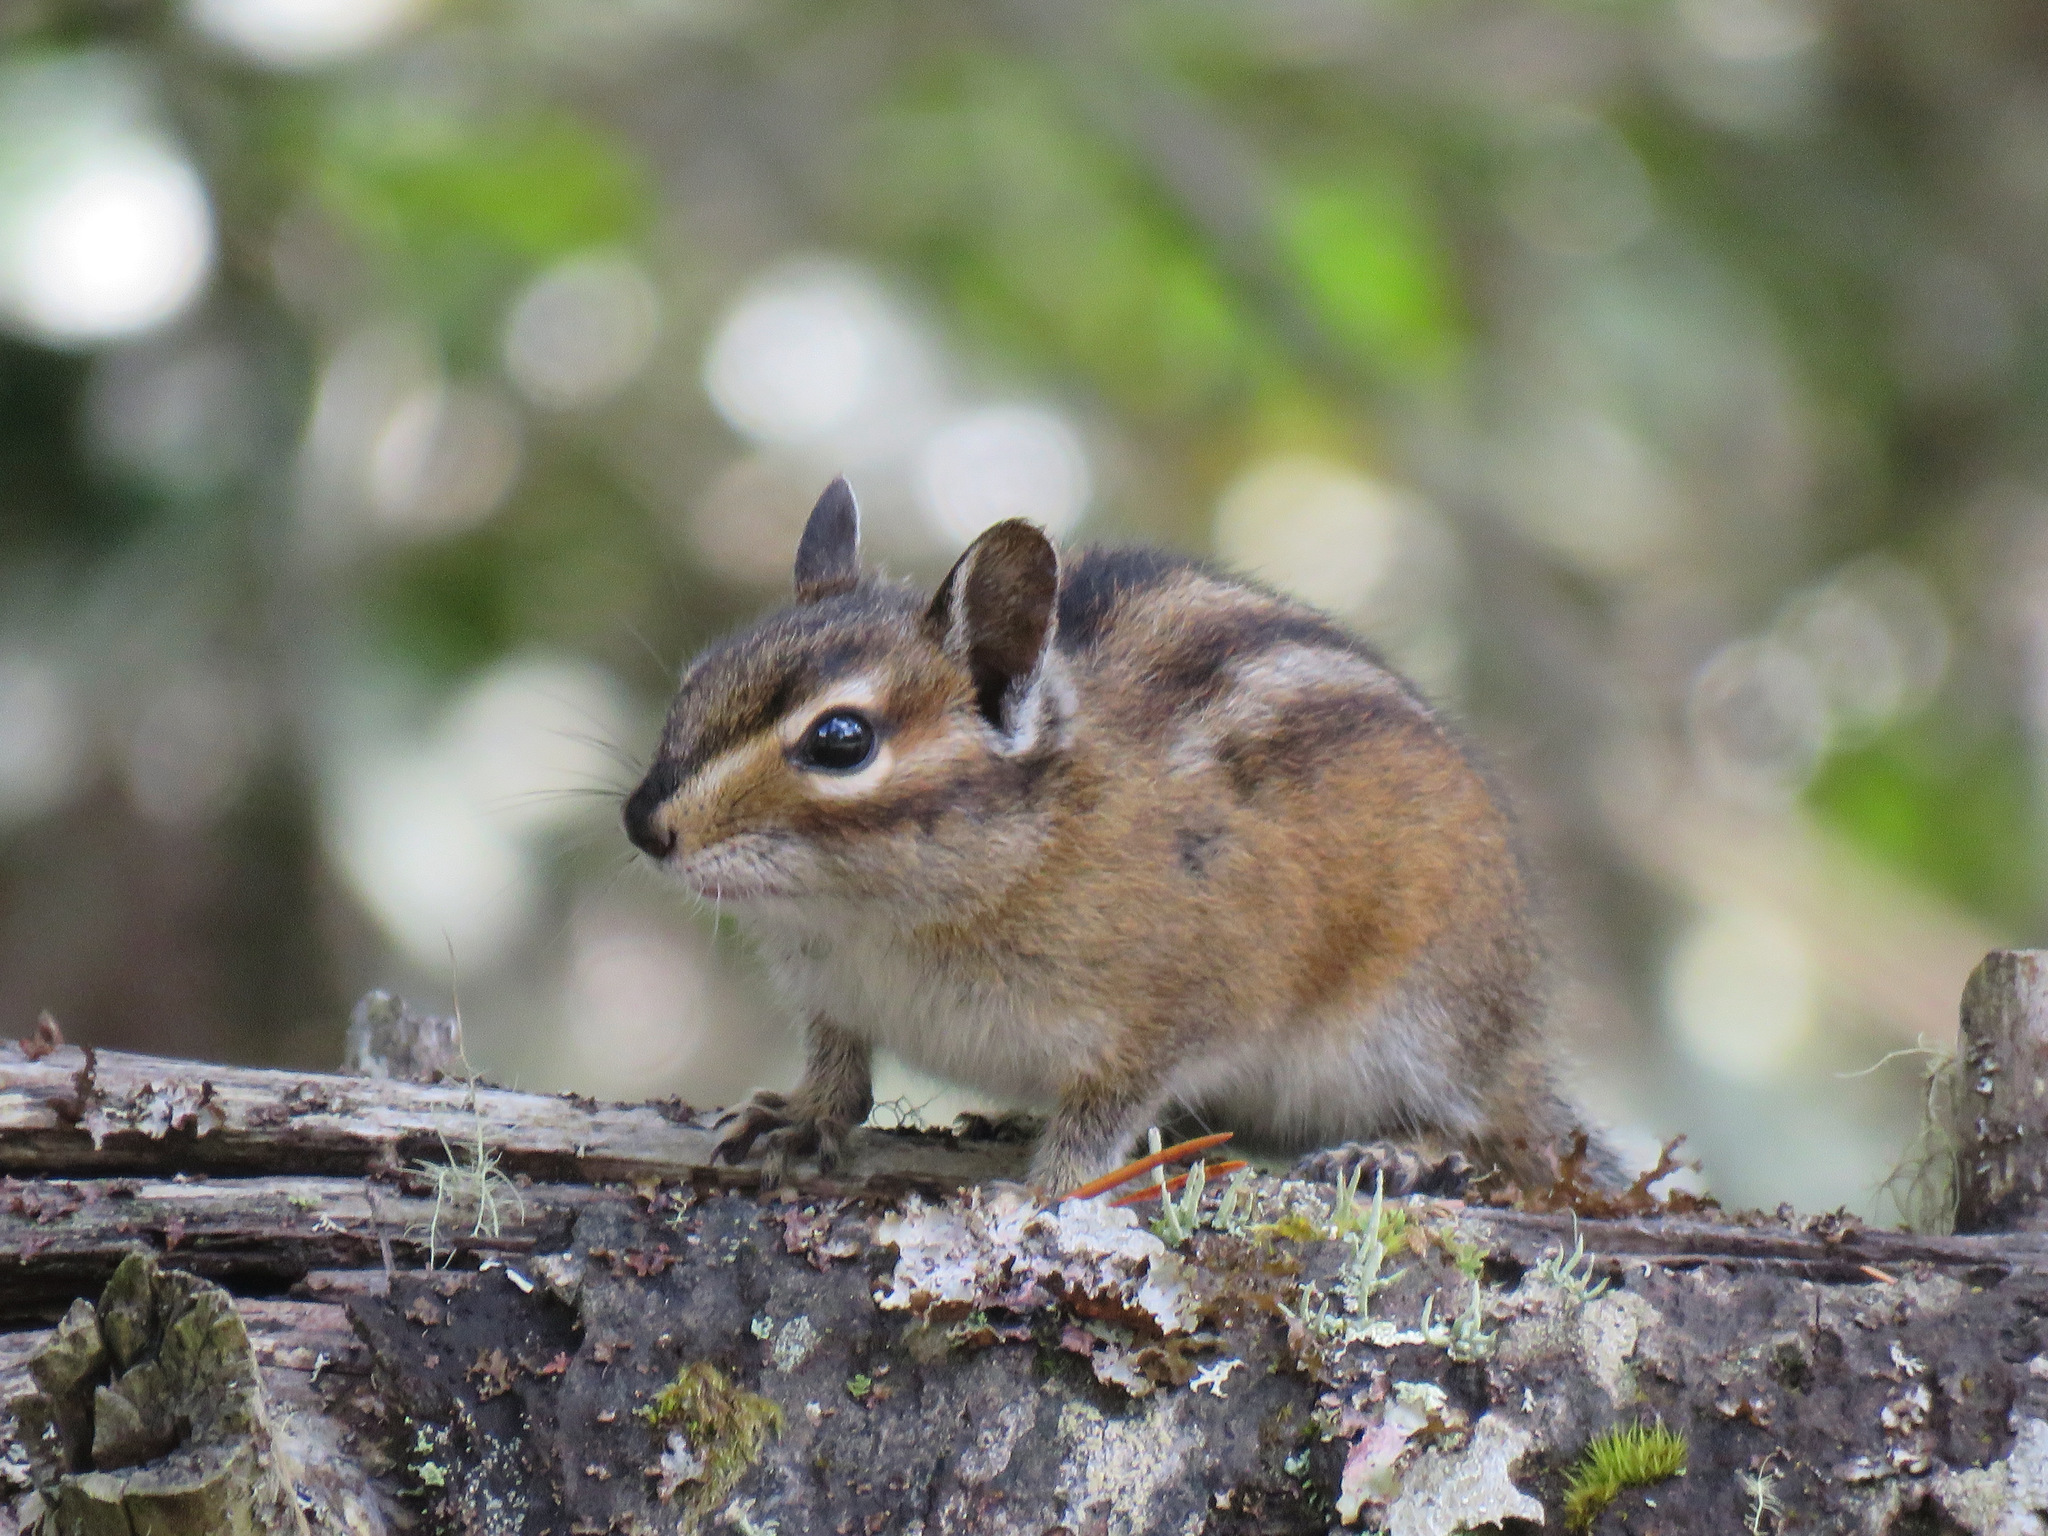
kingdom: Animalia
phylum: Chordata
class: Mammalia
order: Rodentia
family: Sciuridae
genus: Tamias
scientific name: Tamias townsendii
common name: Townsend's chipmunk
